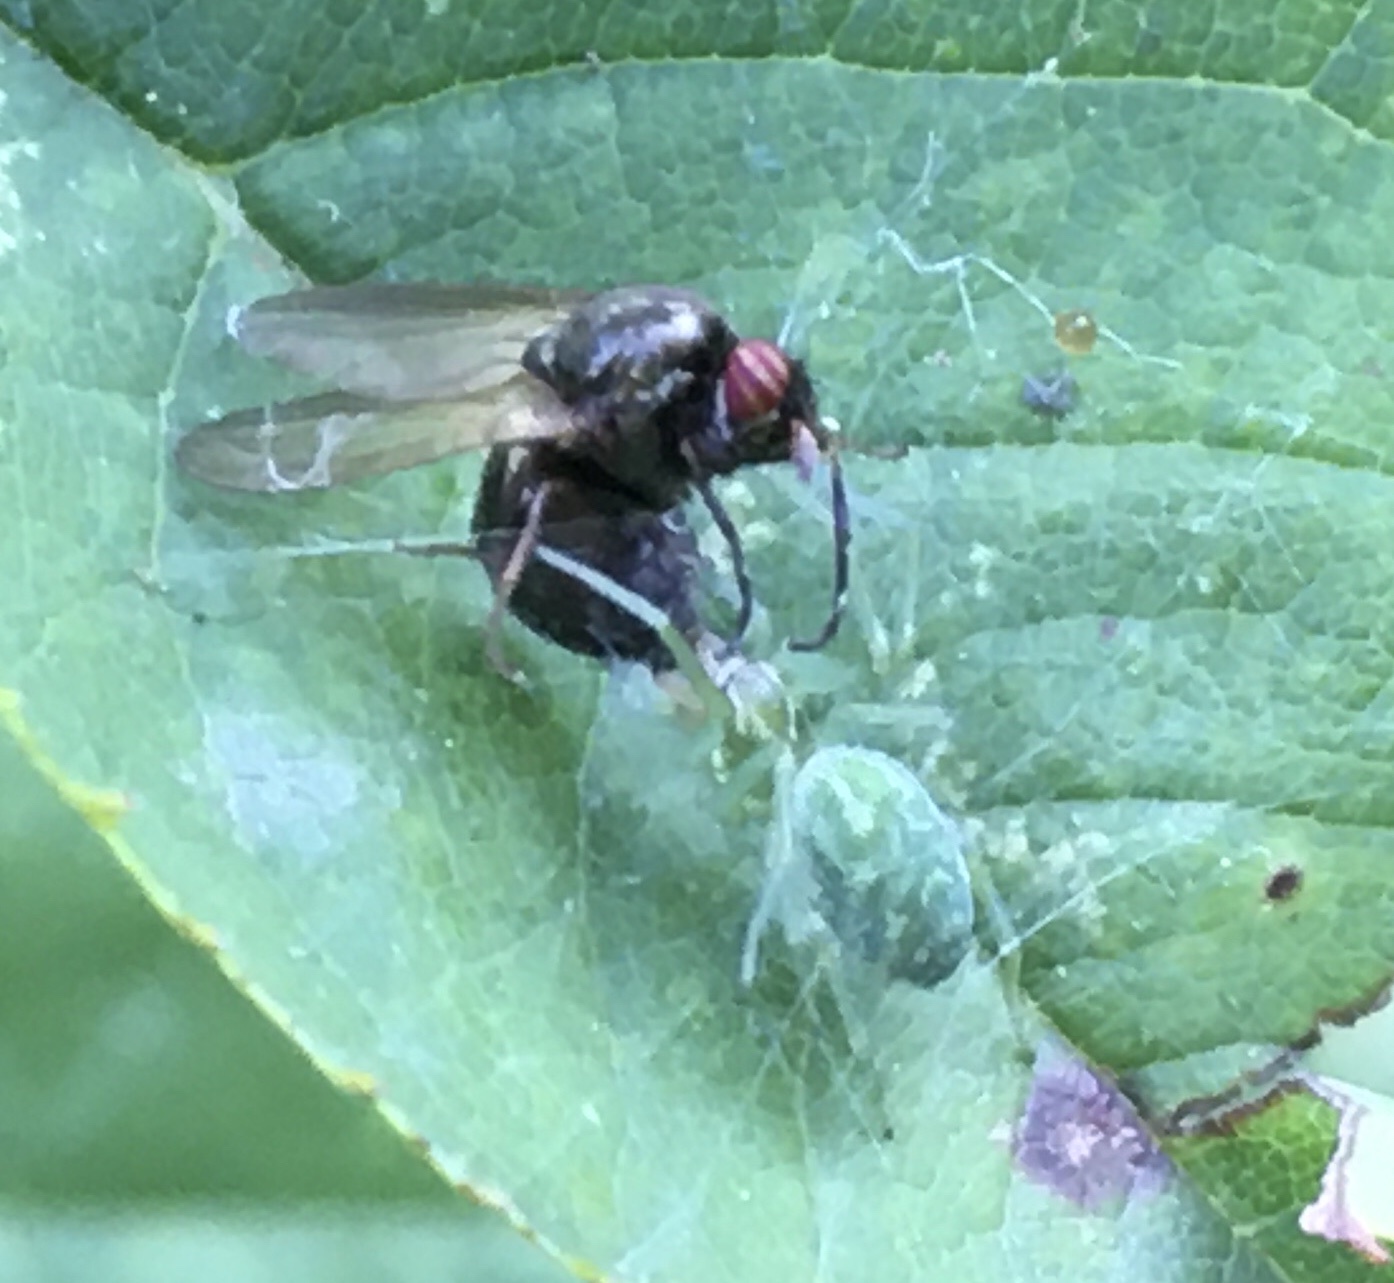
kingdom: Animalia
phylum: Arthropoda
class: Arachnida
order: Araneae
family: Dictynidae
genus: Nigma
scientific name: Nigma walckenaeri
